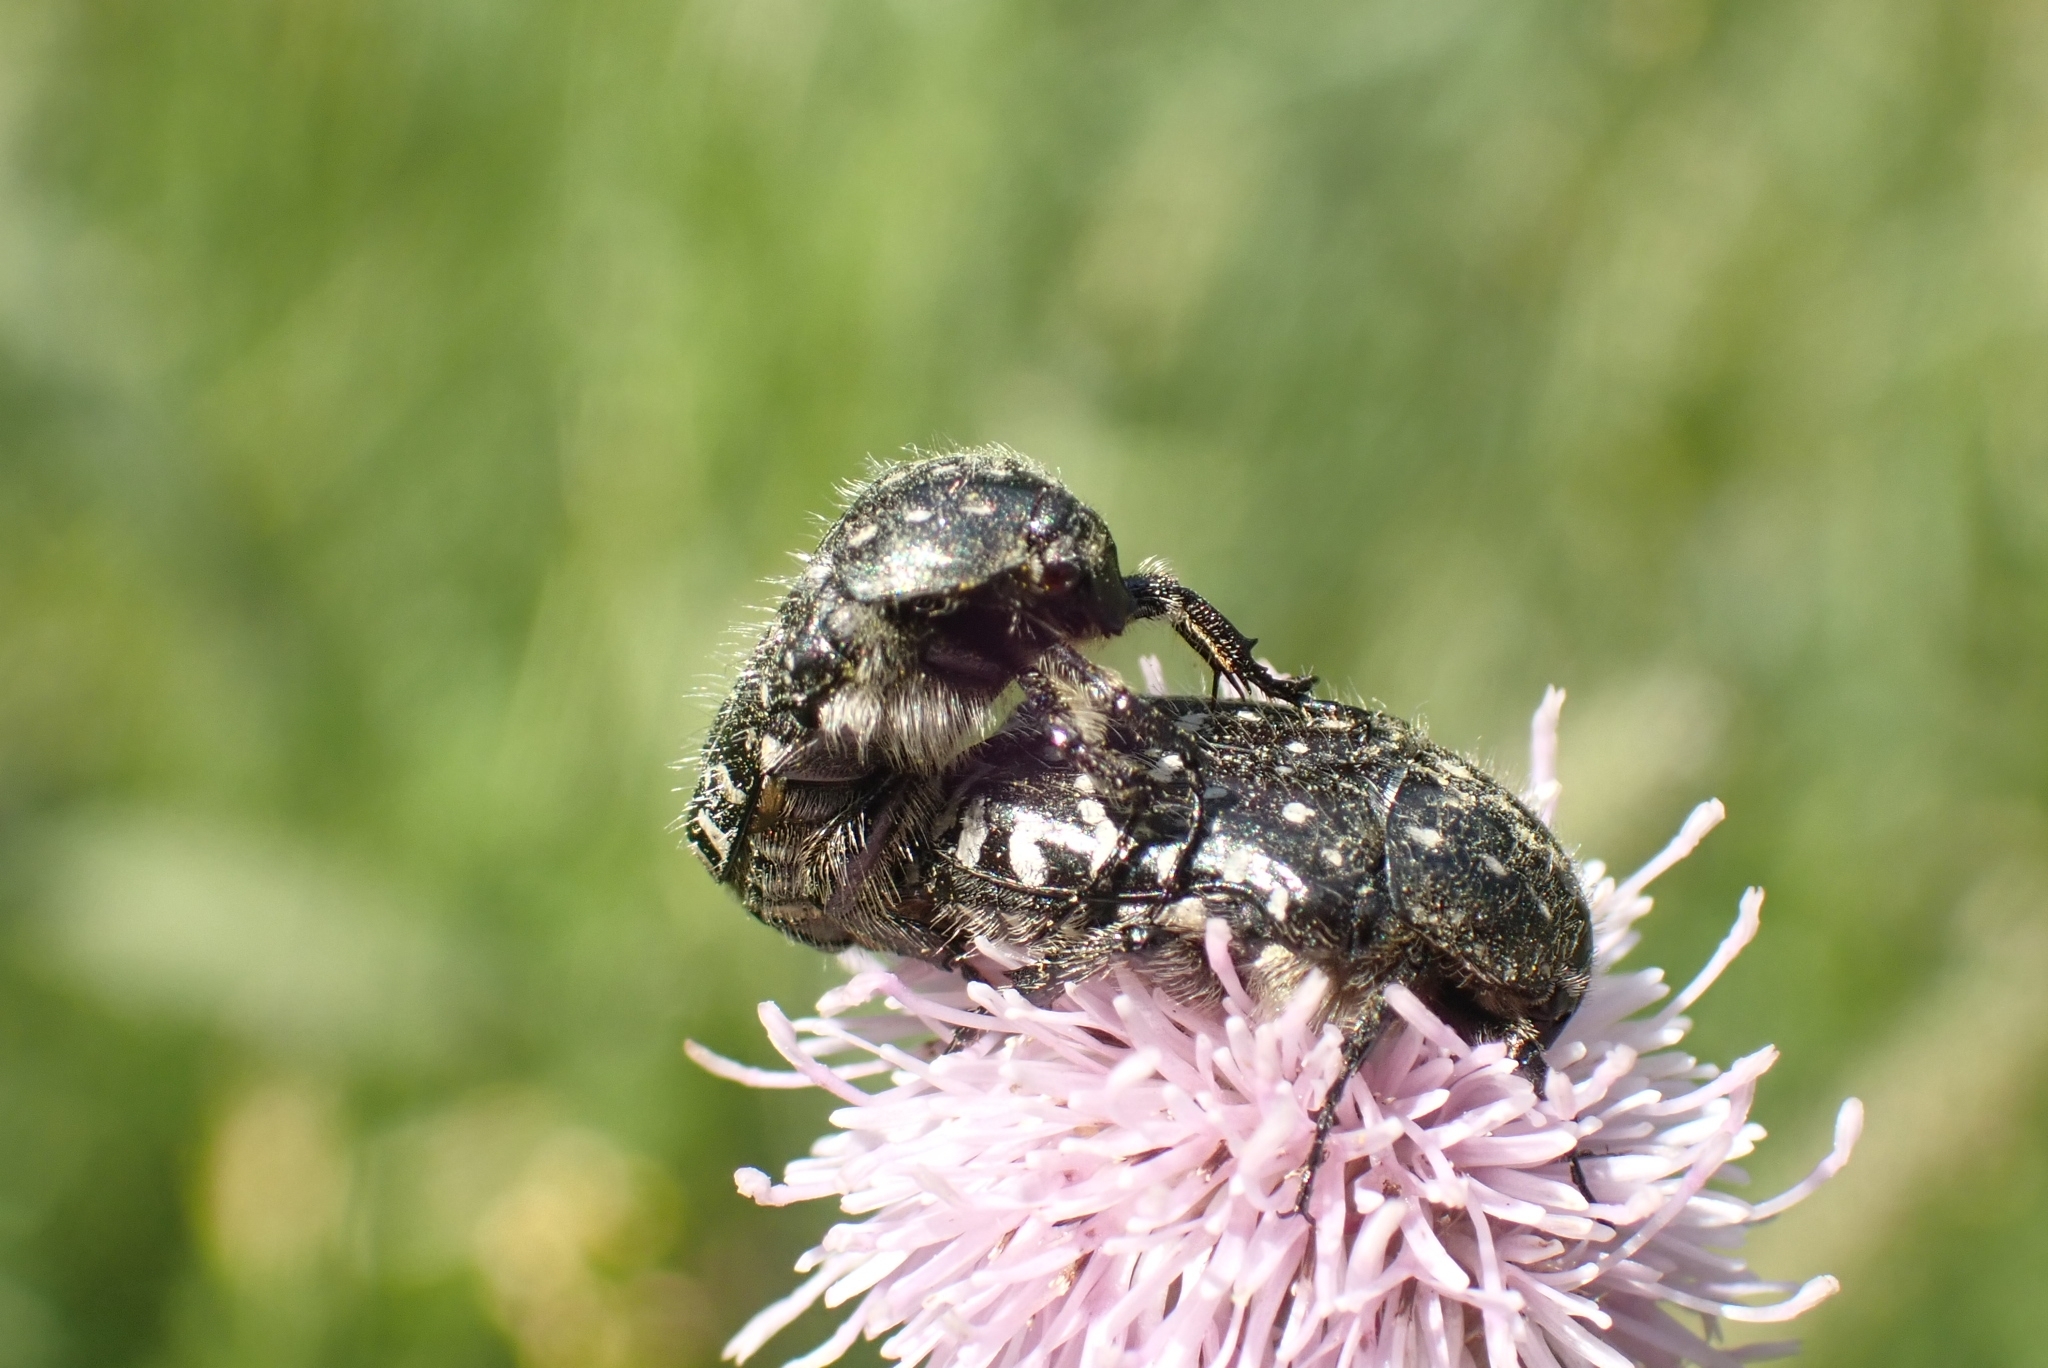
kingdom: Animalia
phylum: Arthropoda
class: Insecta
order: Coleoptera
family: Scarabaeidae
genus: Oxythyrea
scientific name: Oxythyrea funesta
